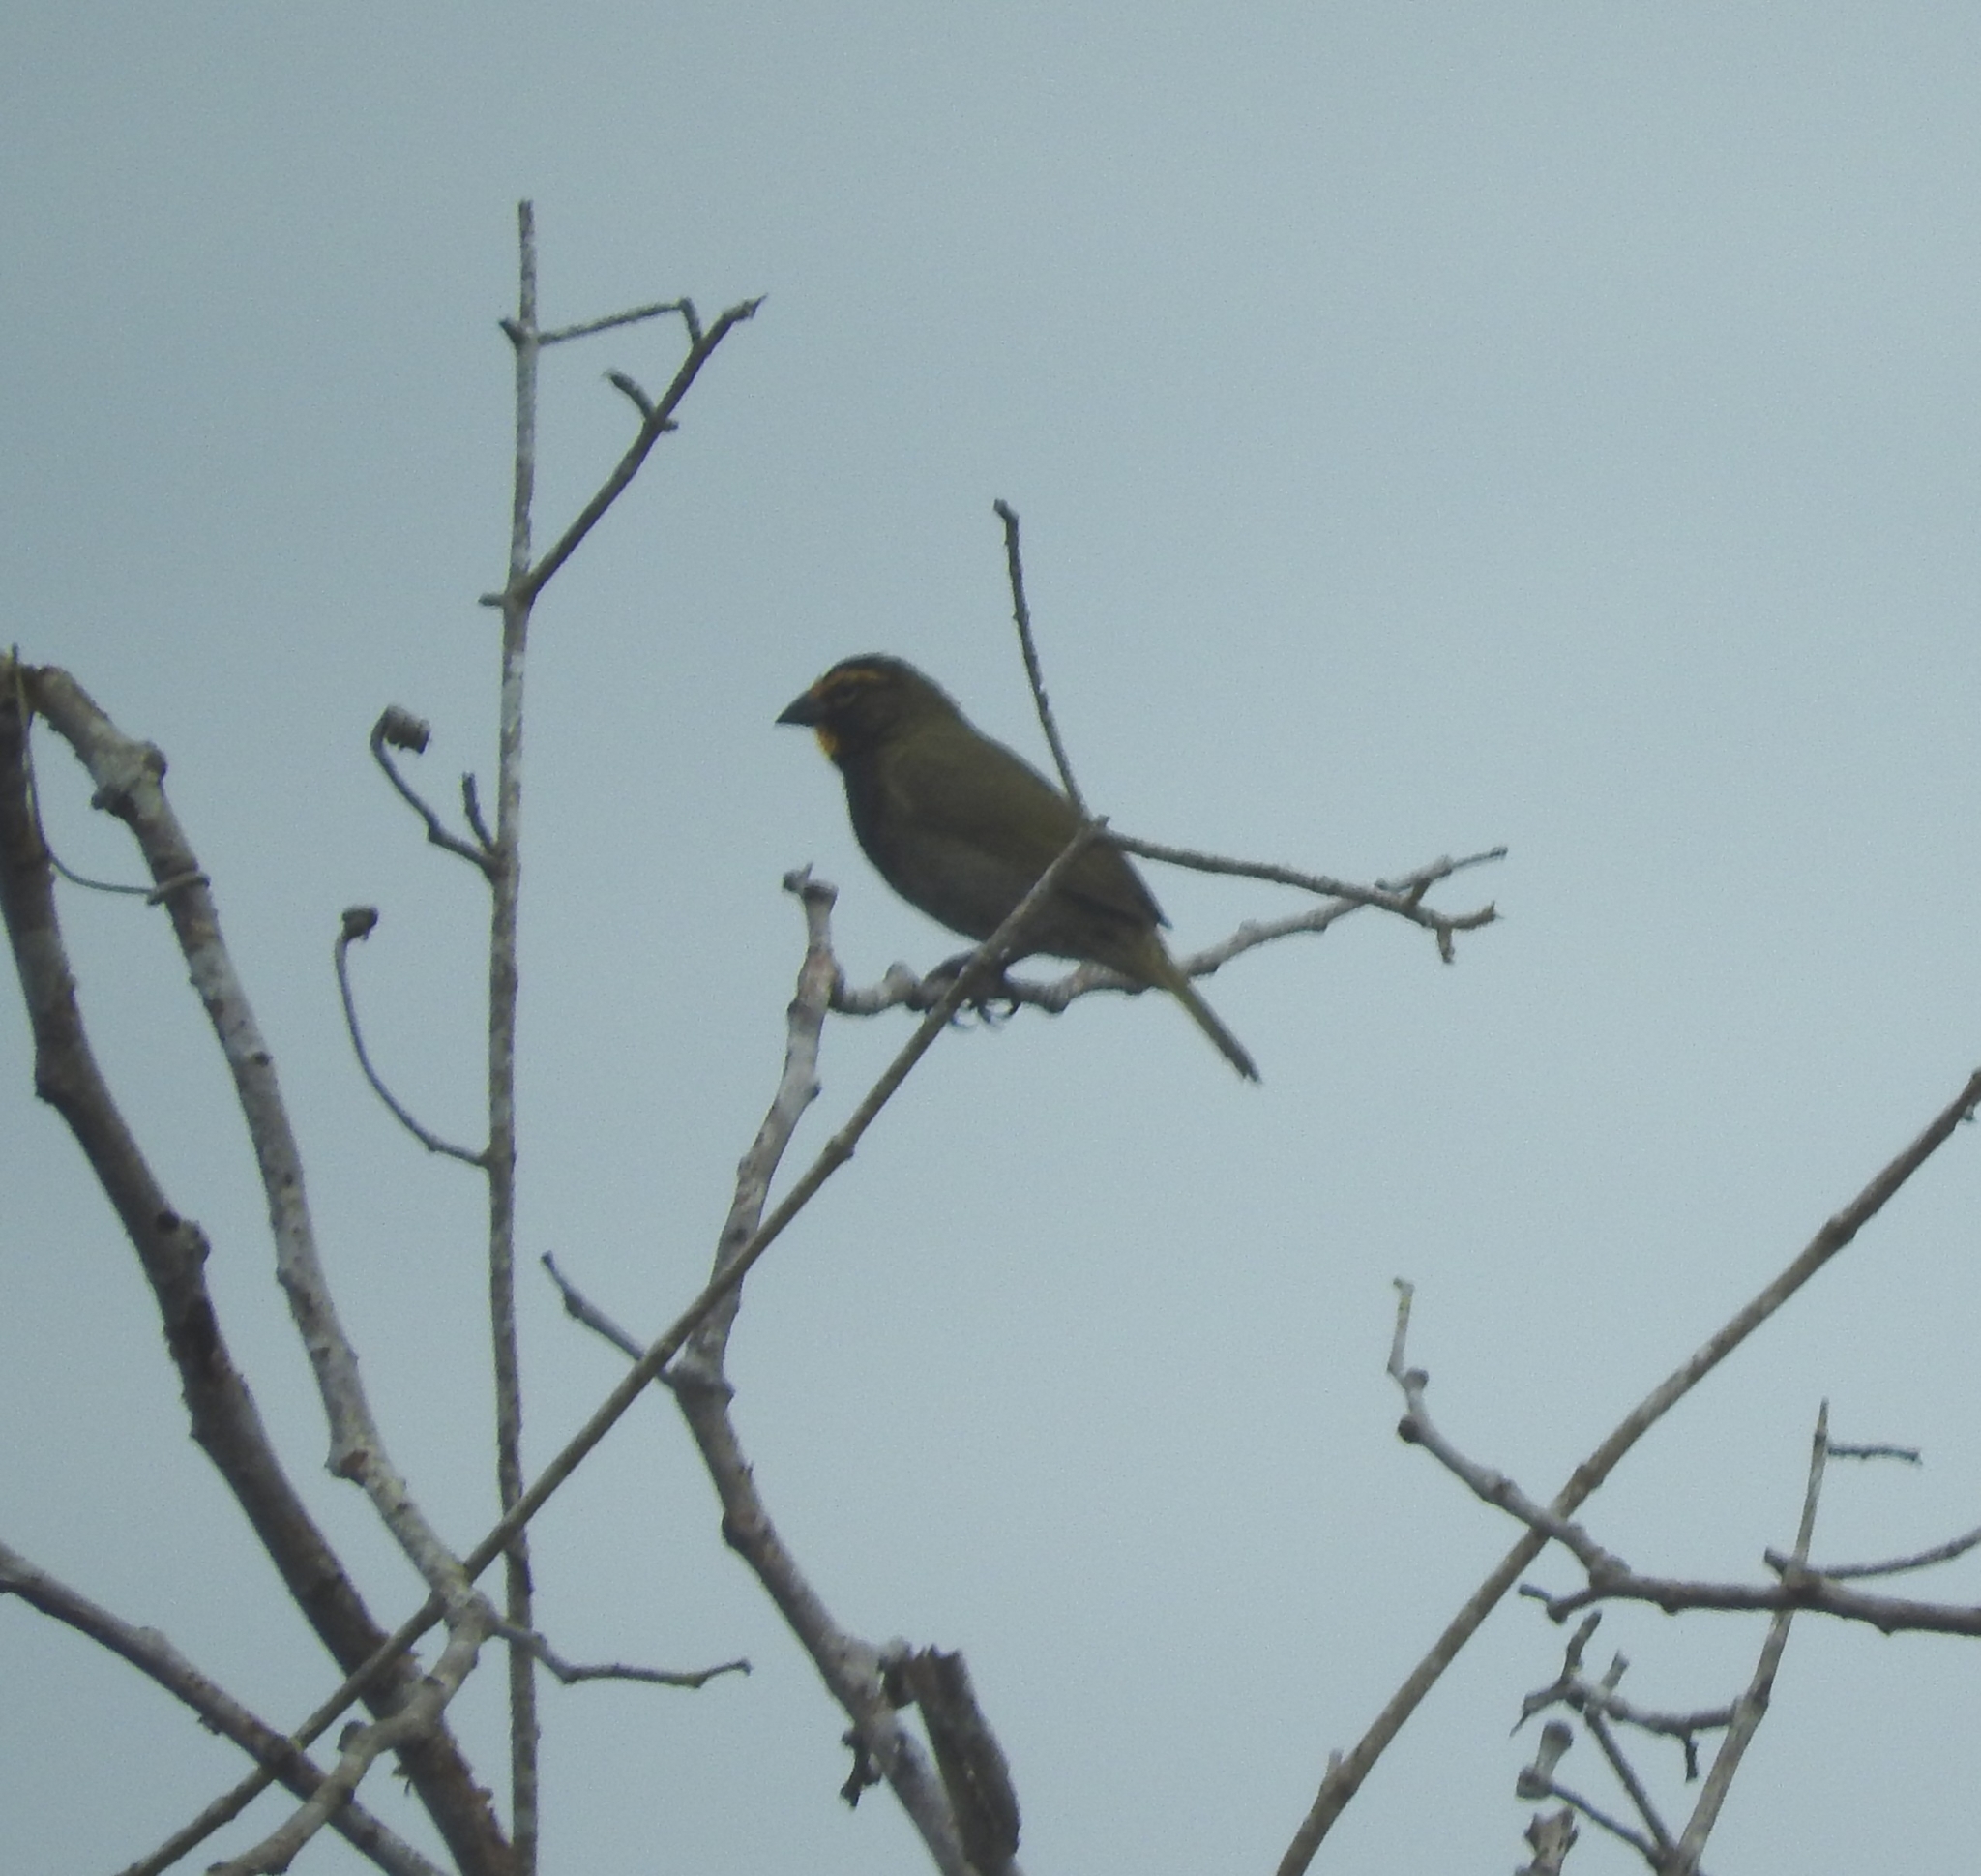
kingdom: Animalia
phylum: Chordata
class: Aves
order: Passeriformes
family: Thraupidae
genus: Tiaris
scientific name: Tiaris olivaceus
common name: Yellow-faced grassquit
